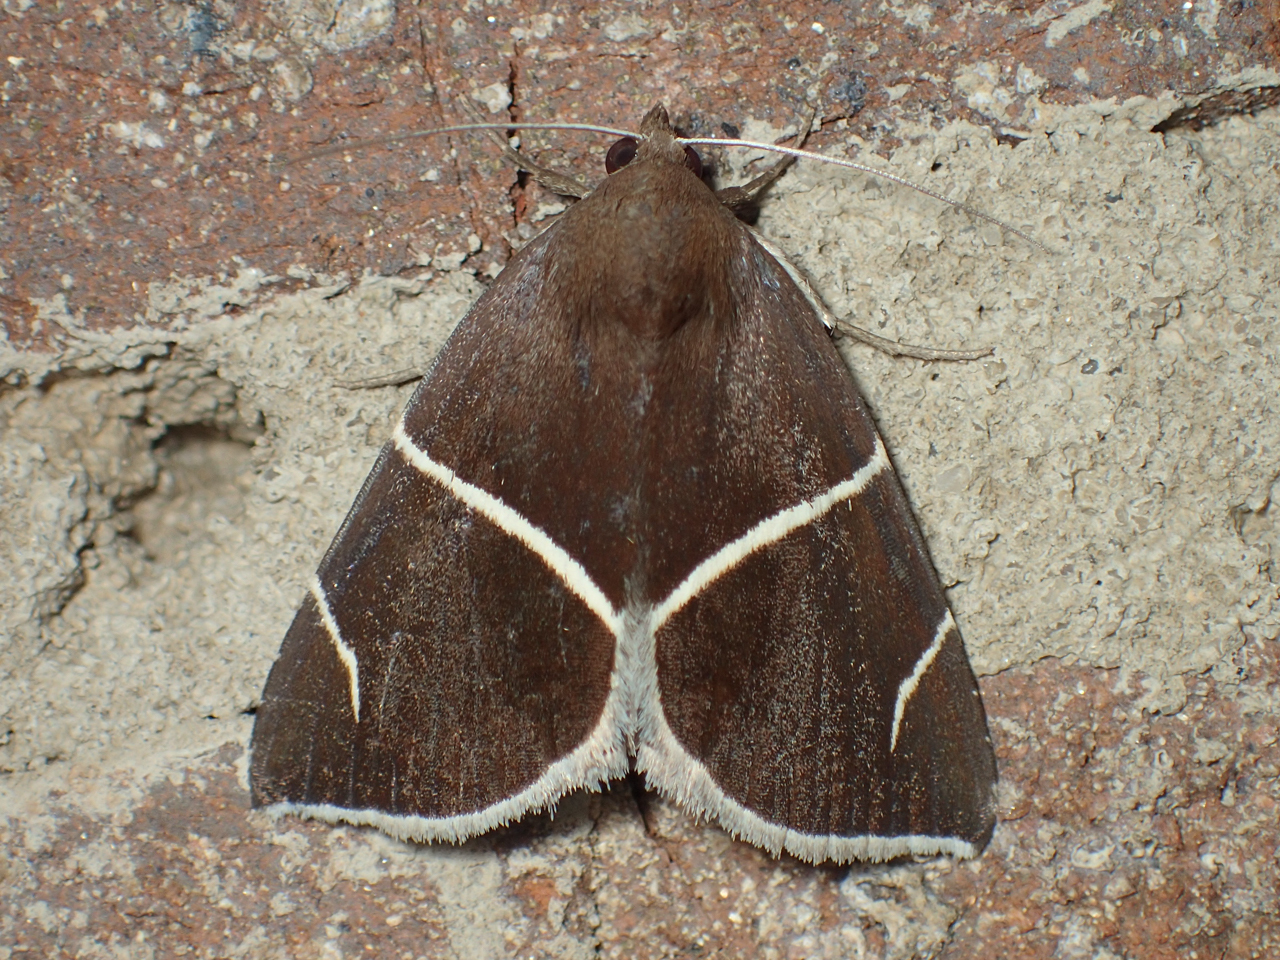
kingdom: Animalia
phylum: Arthropoda
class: Insecta
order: Lepidoptera
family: Erebidae
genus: Argyrostrotis
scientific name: Argyrostrotis anilis
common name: Short-lined chocolate
